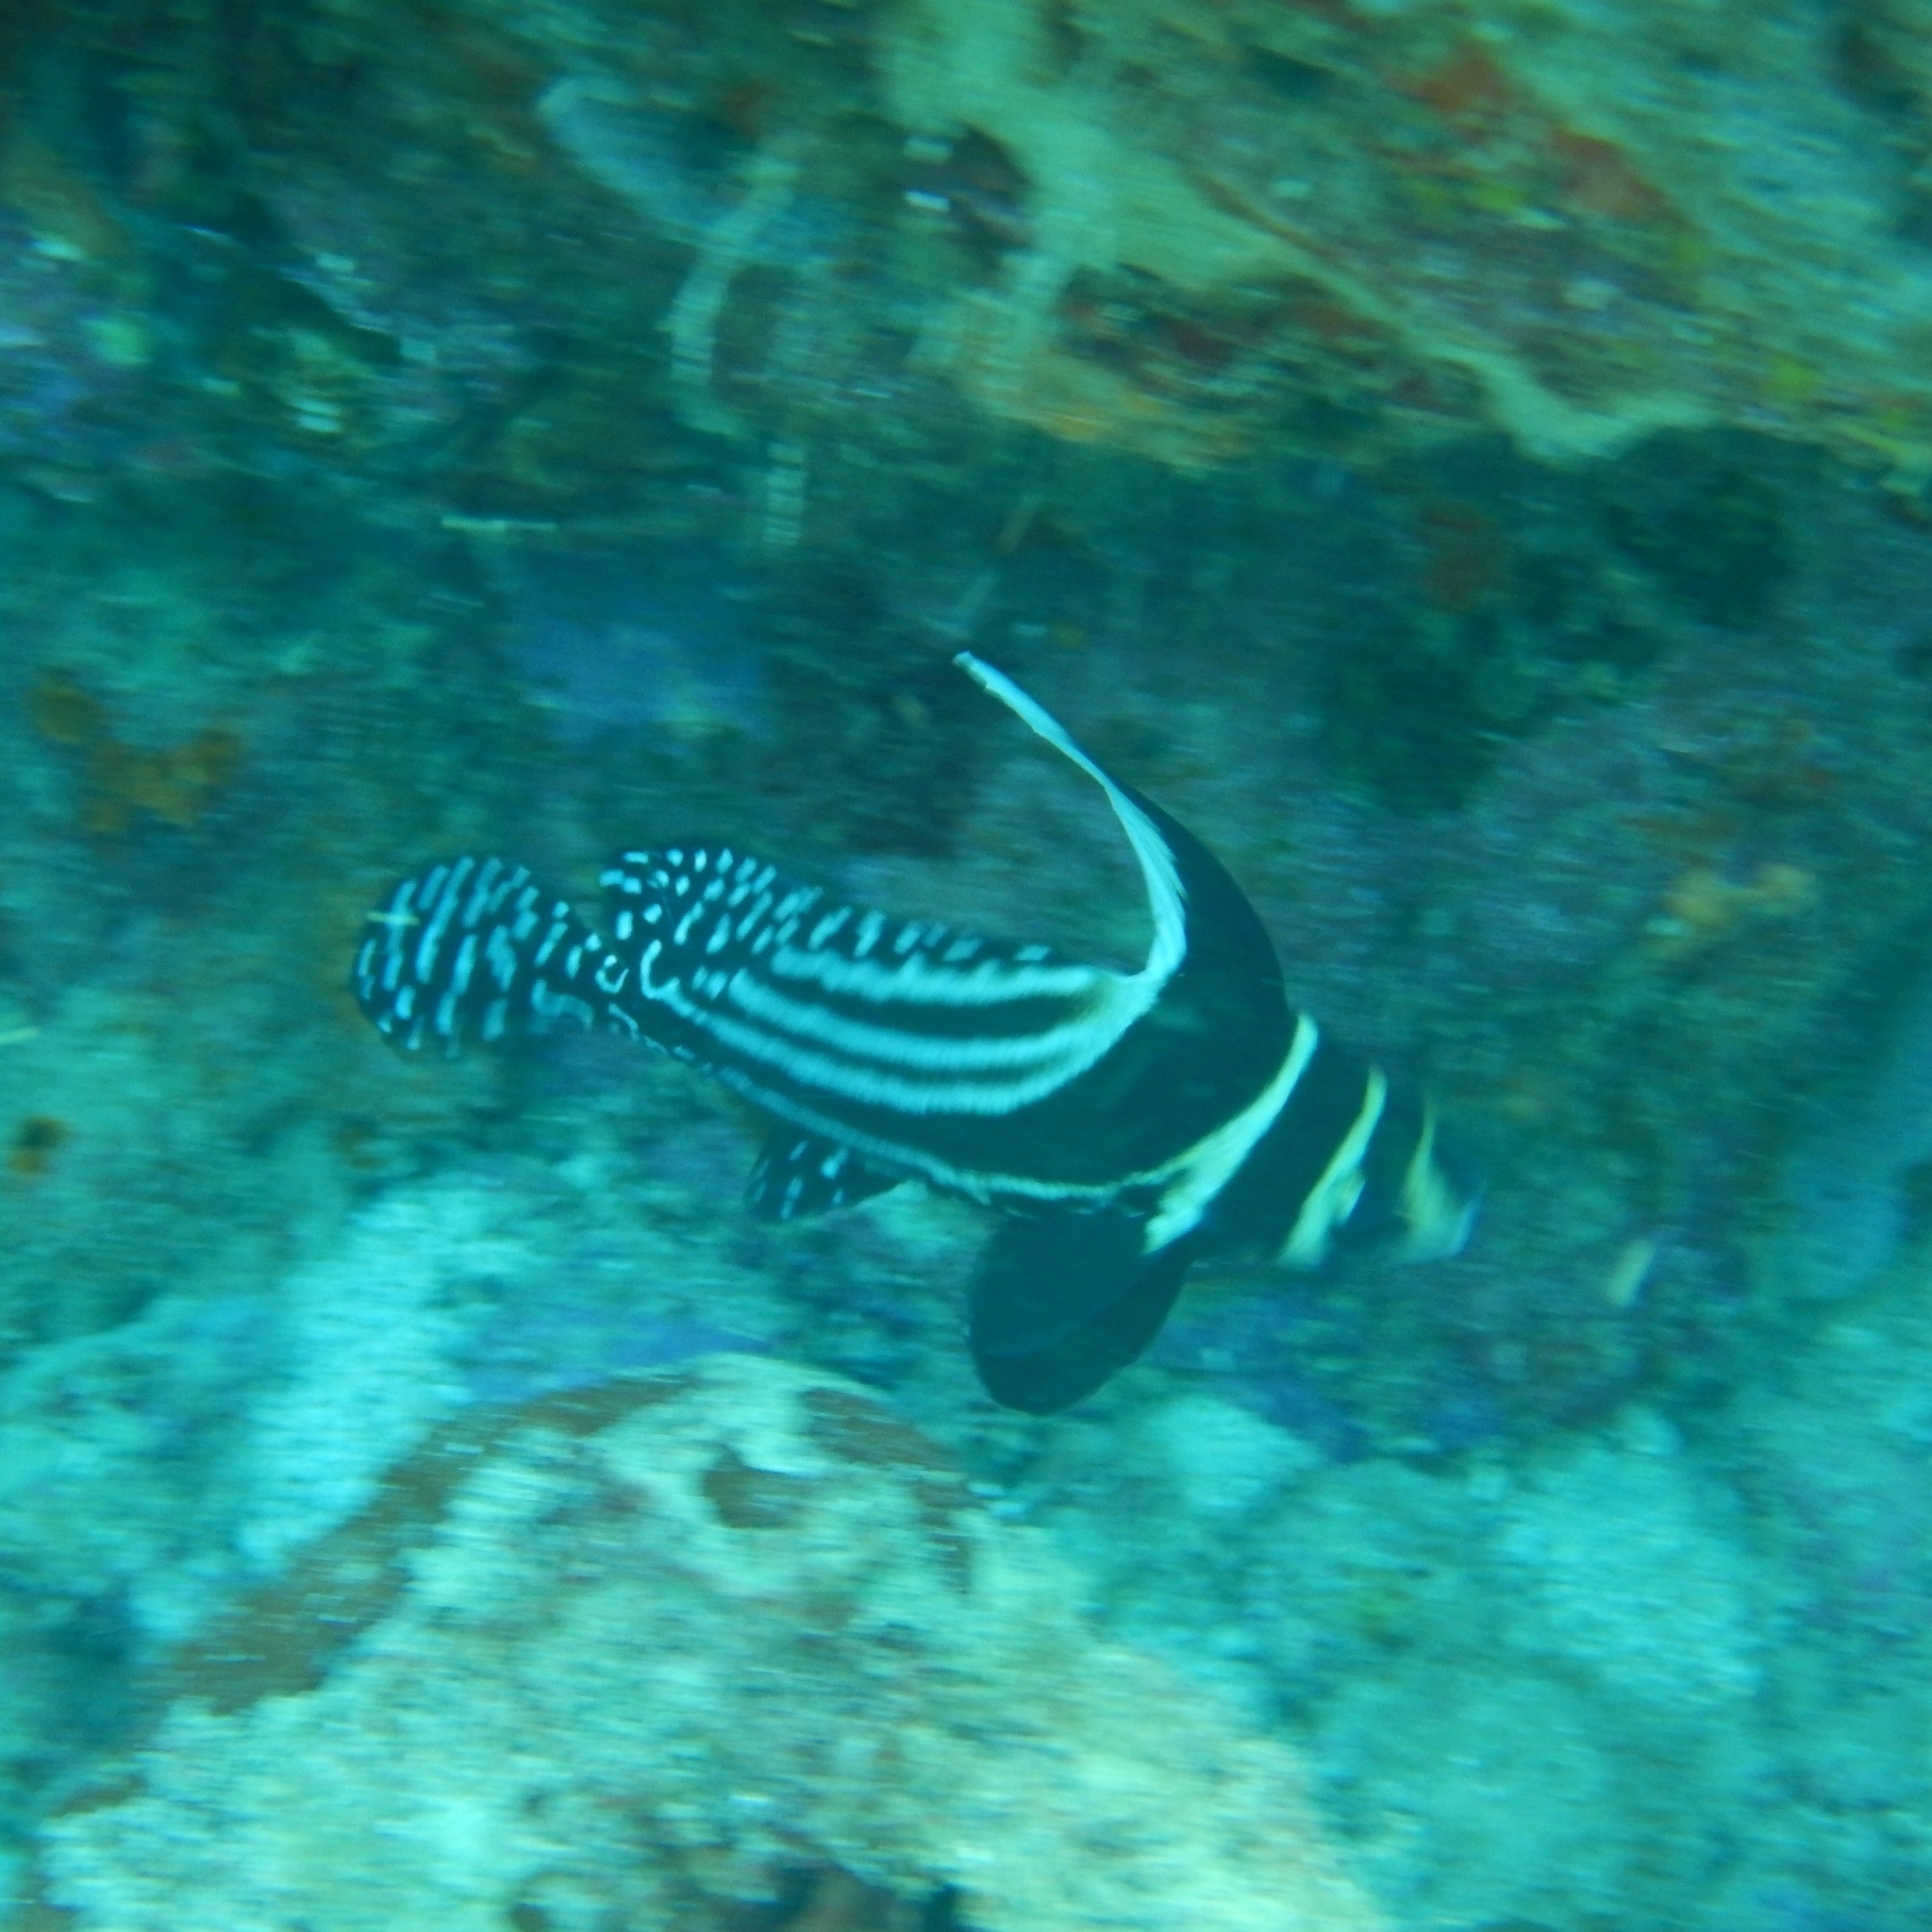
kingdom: Animalia
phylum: Chordata
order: Perciformes
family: Sciaenidae
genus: Equetus
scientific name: Equetus punctatus
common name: Spotted drum
